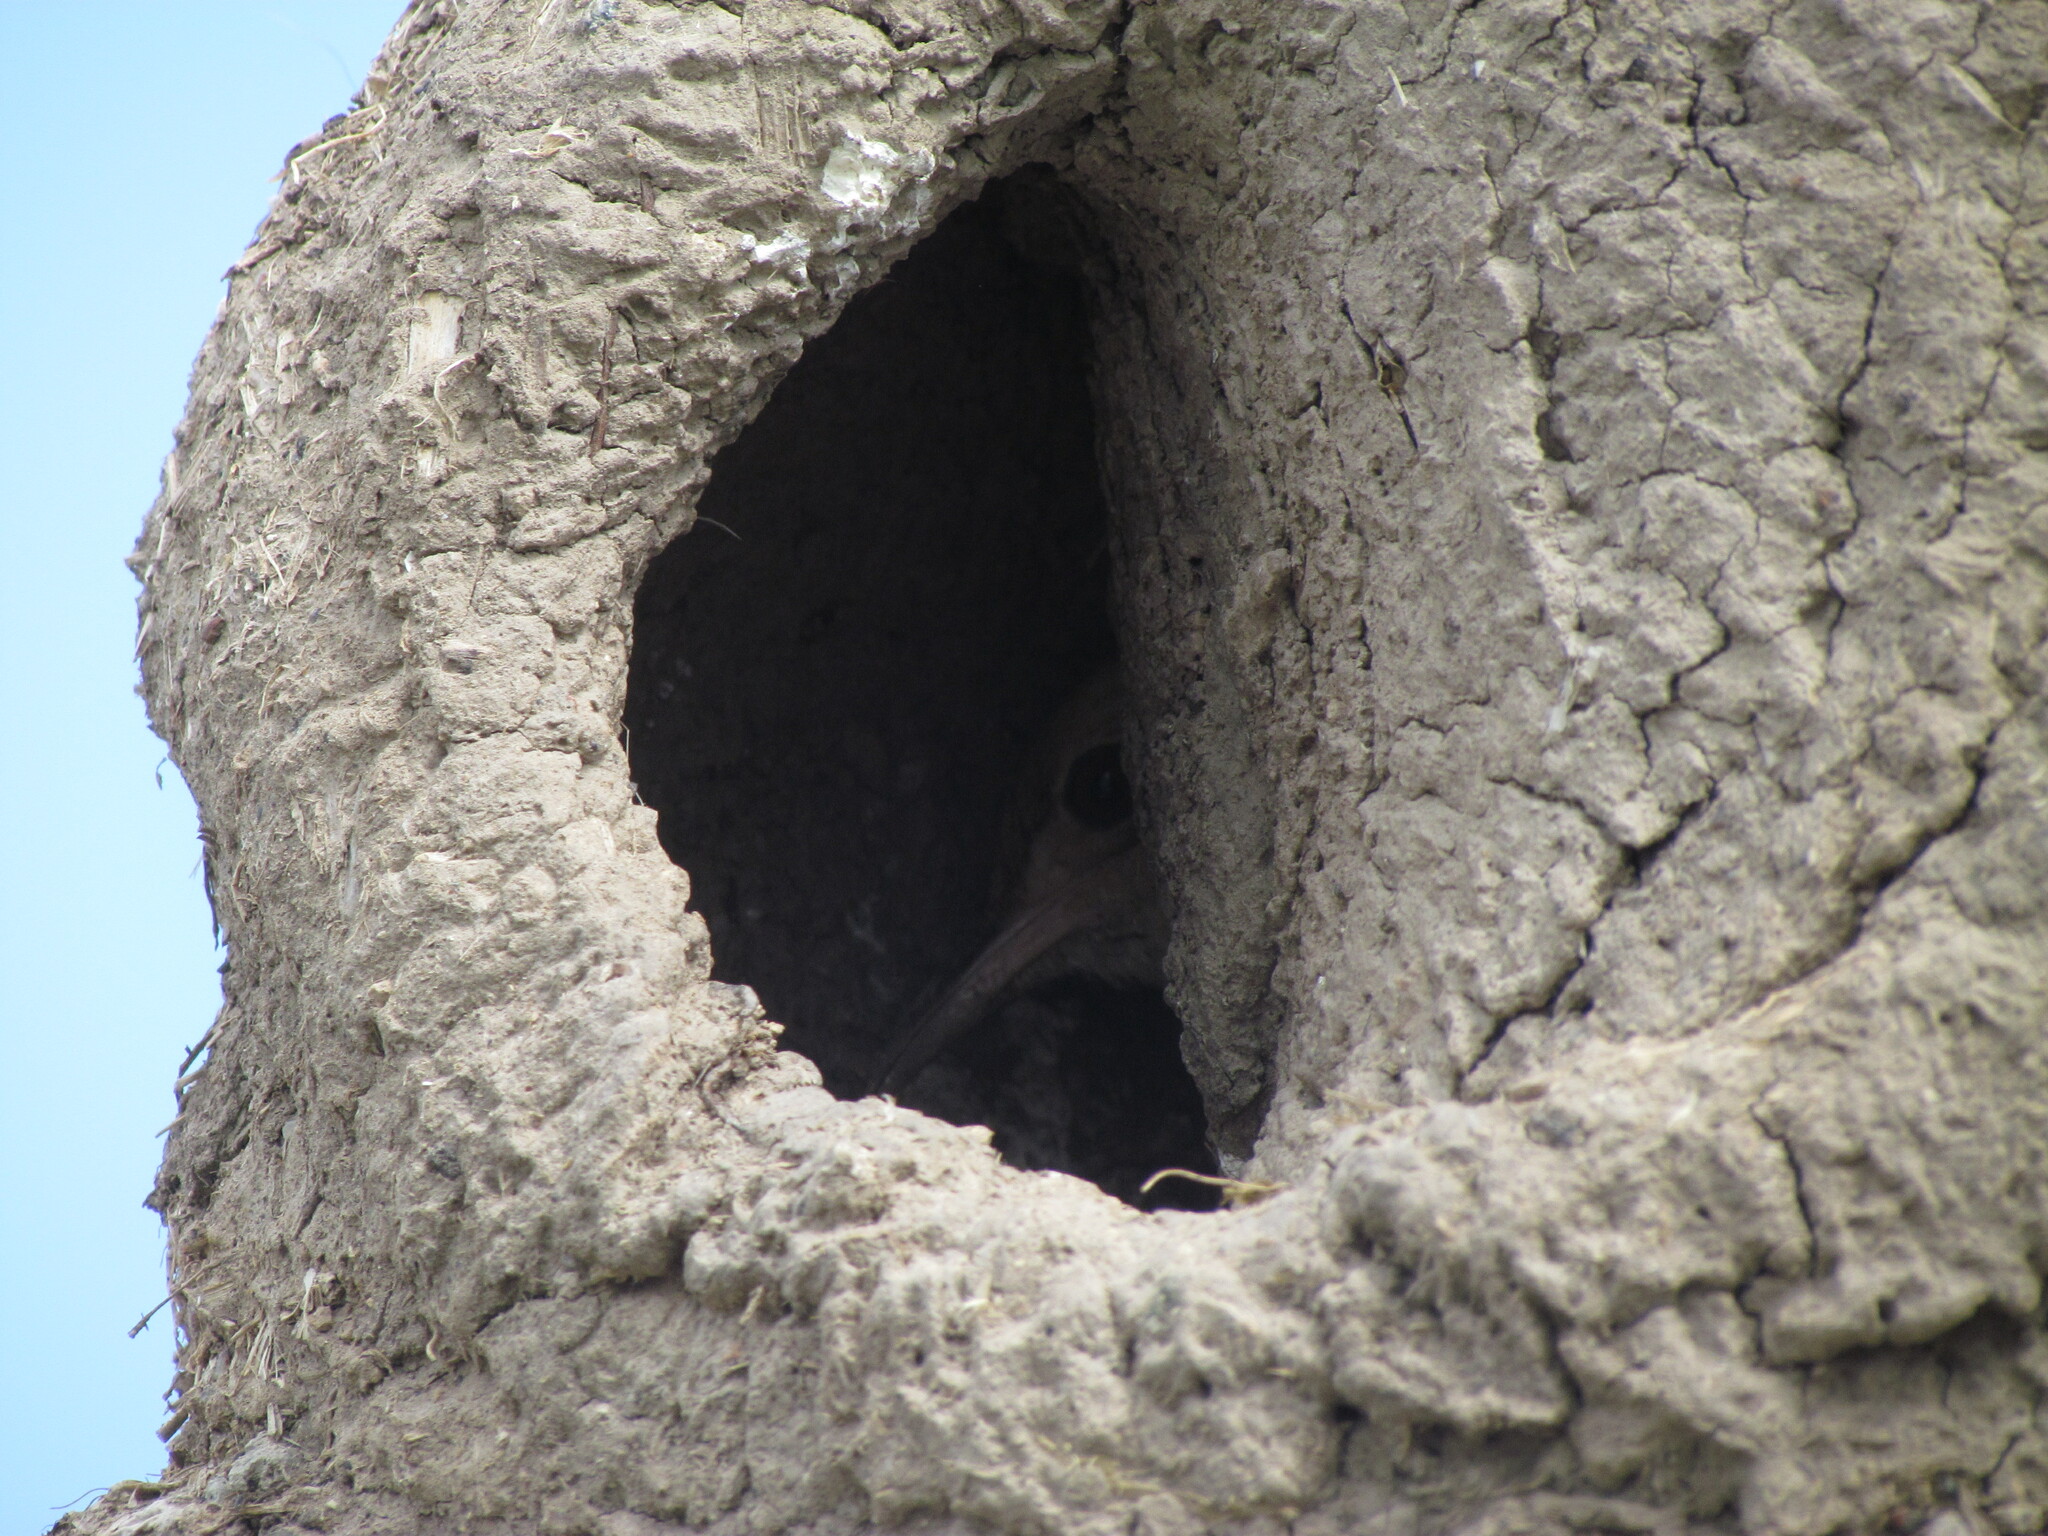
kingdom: Animalia
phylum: Chordata
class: Aves
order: Passeriformes
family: Furnariidae
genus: Furnarius
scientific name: Furnarius rufus
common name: Rufous hornero
